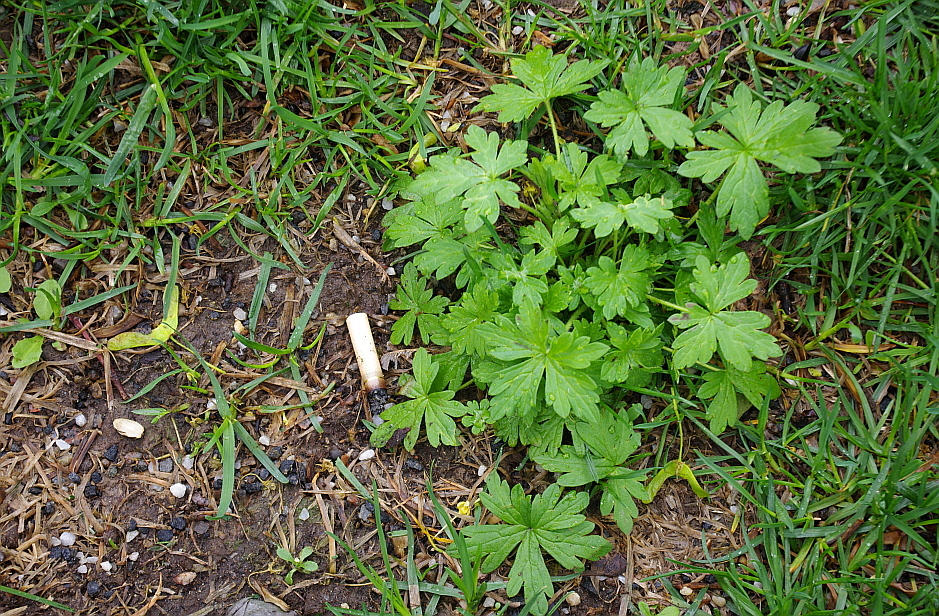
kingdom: Plantae
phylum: Tracheophyta
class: Magnoliopsida
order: Geraniales
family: Geraniaceae
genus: Geranium
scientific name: Geranium sibiricum
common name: Siberian crane's-bill
